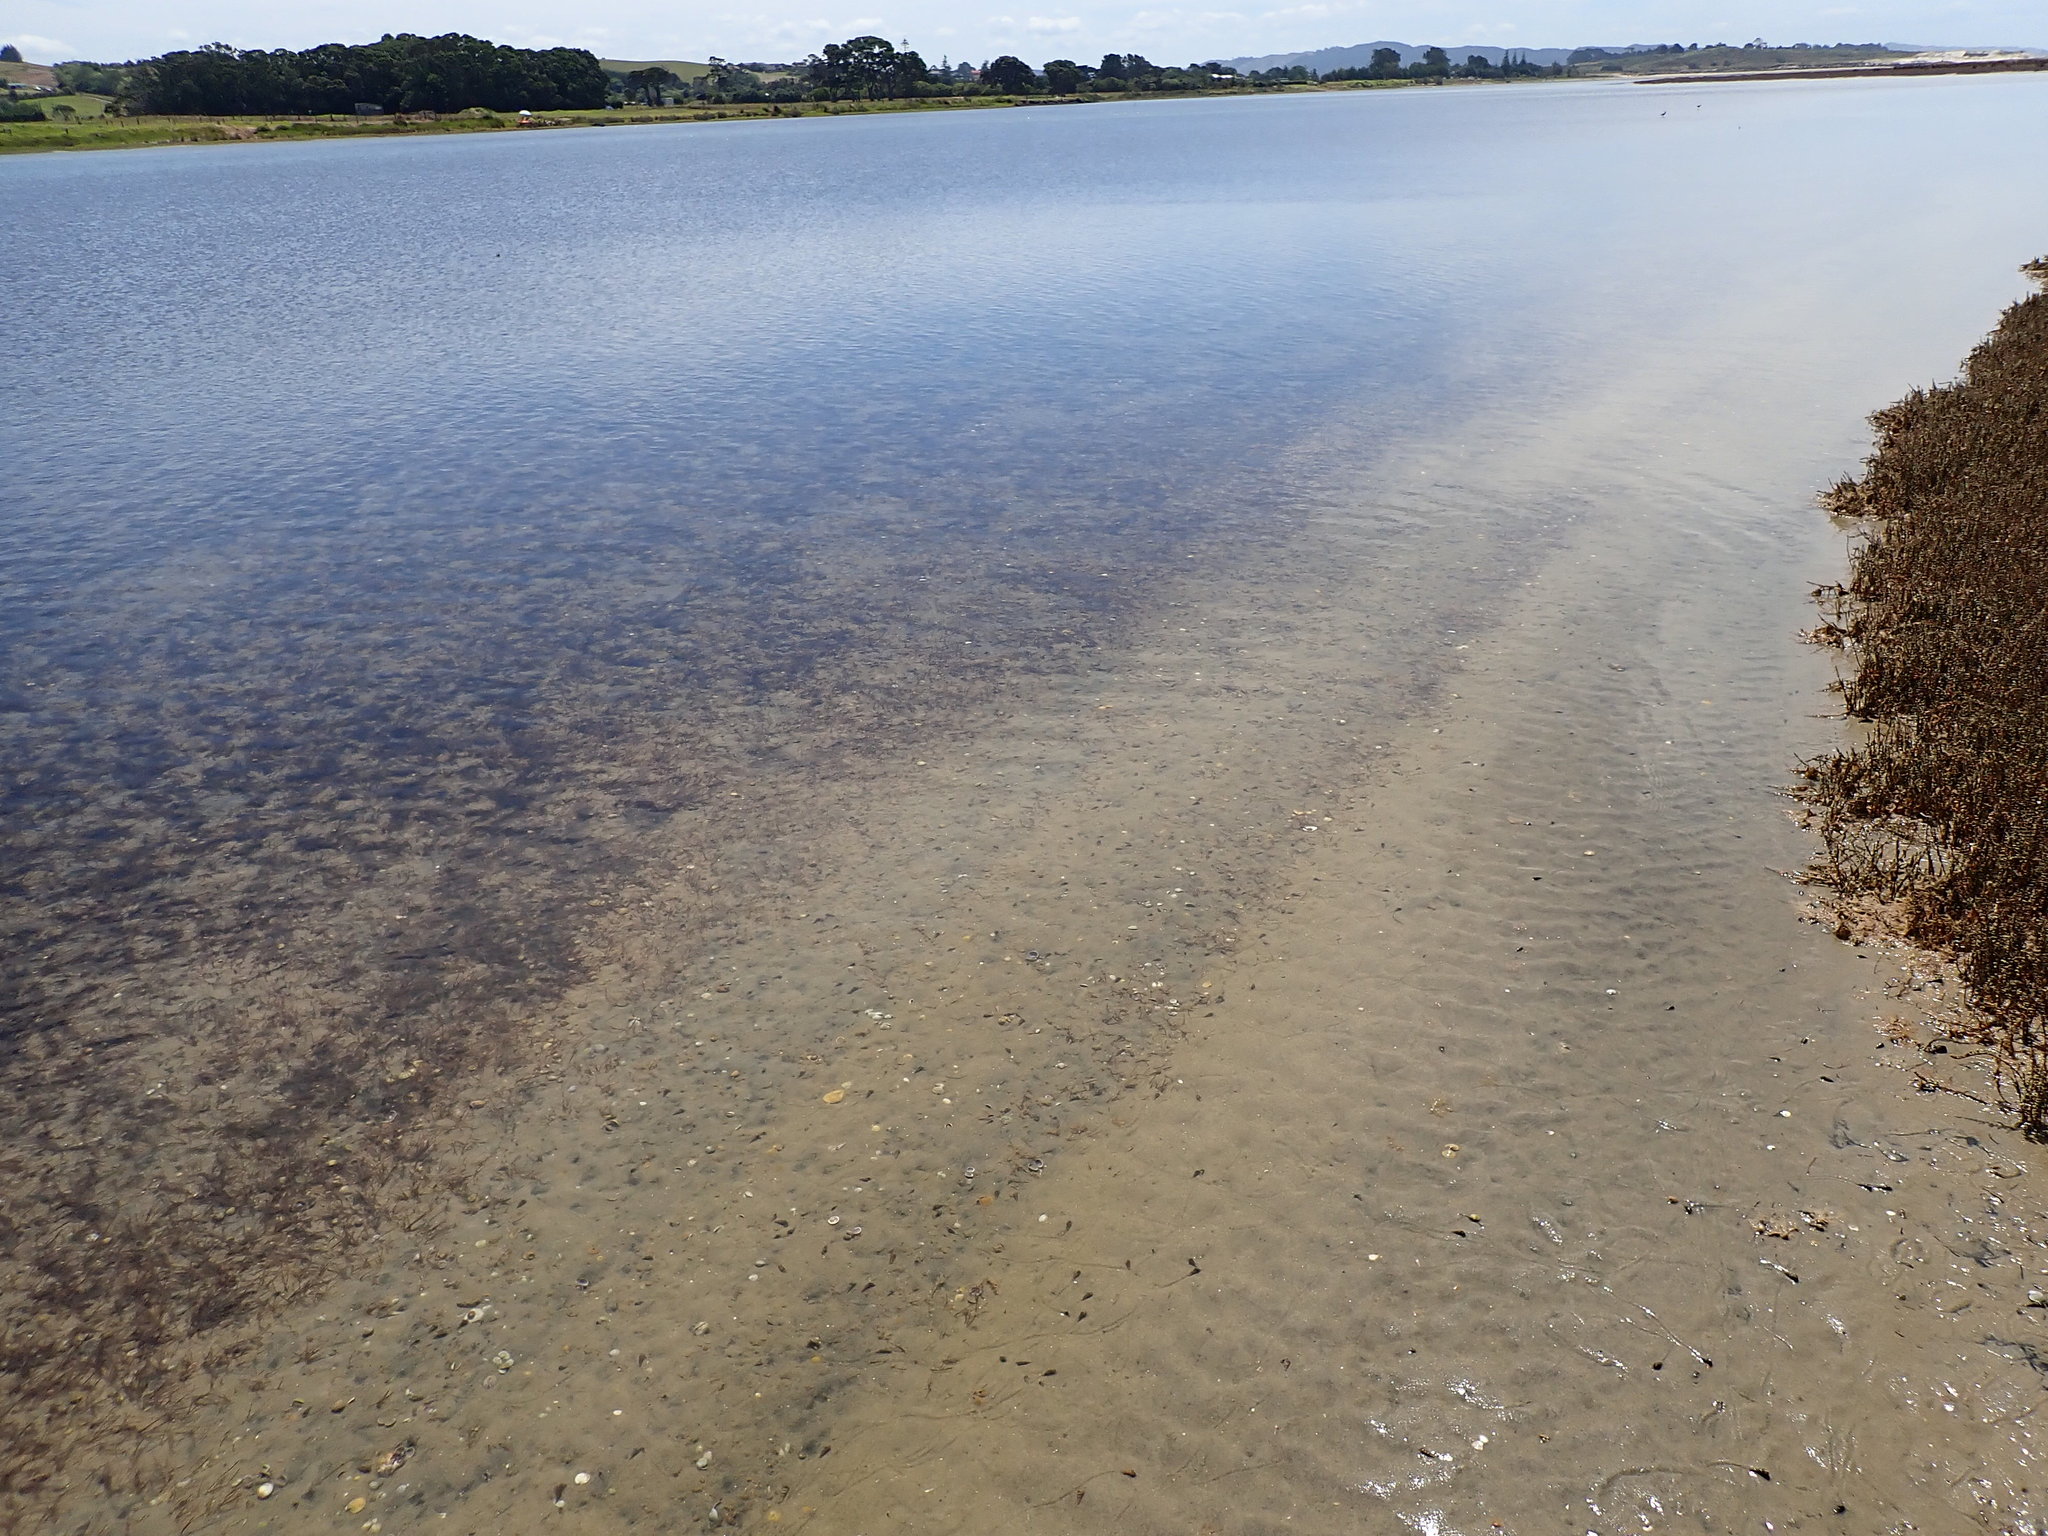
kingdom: Plantae
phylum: Tracheophyta
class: Liliopsida
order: Alismatales
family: Zosteraceae
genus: Zostera
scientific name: Zostera novazelandica
